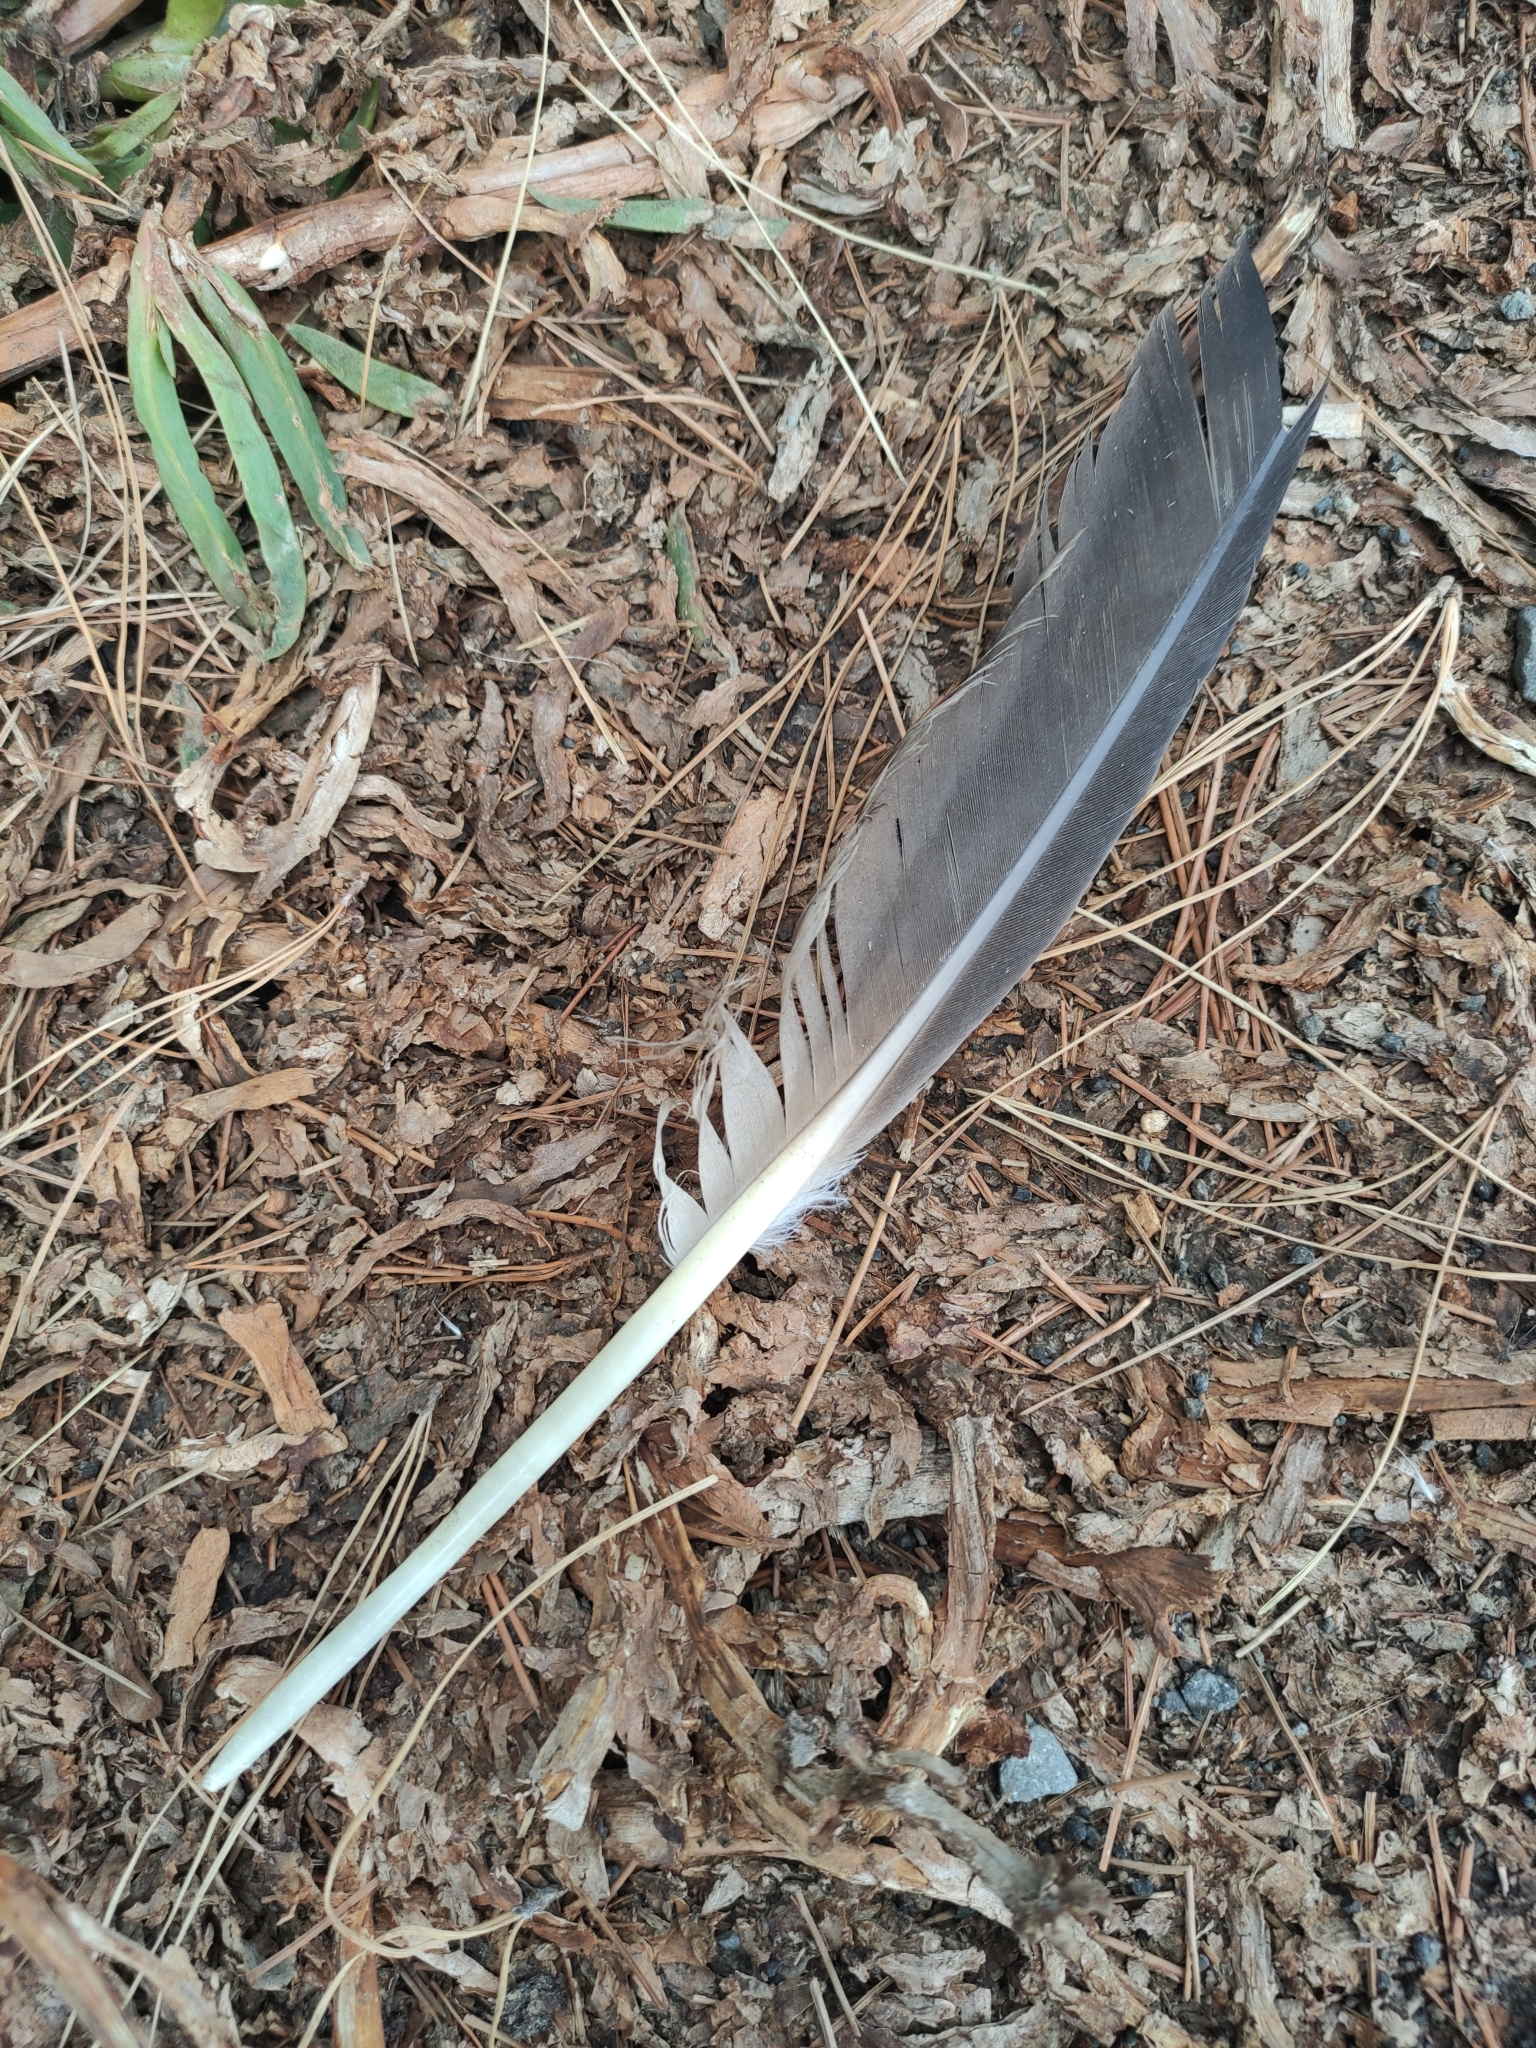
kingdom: Animalia
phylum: Chordata
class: Aves
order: Charadriiformes
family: Laridae
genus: Larus
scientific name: Larus dominicanus
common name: Kelp gull
